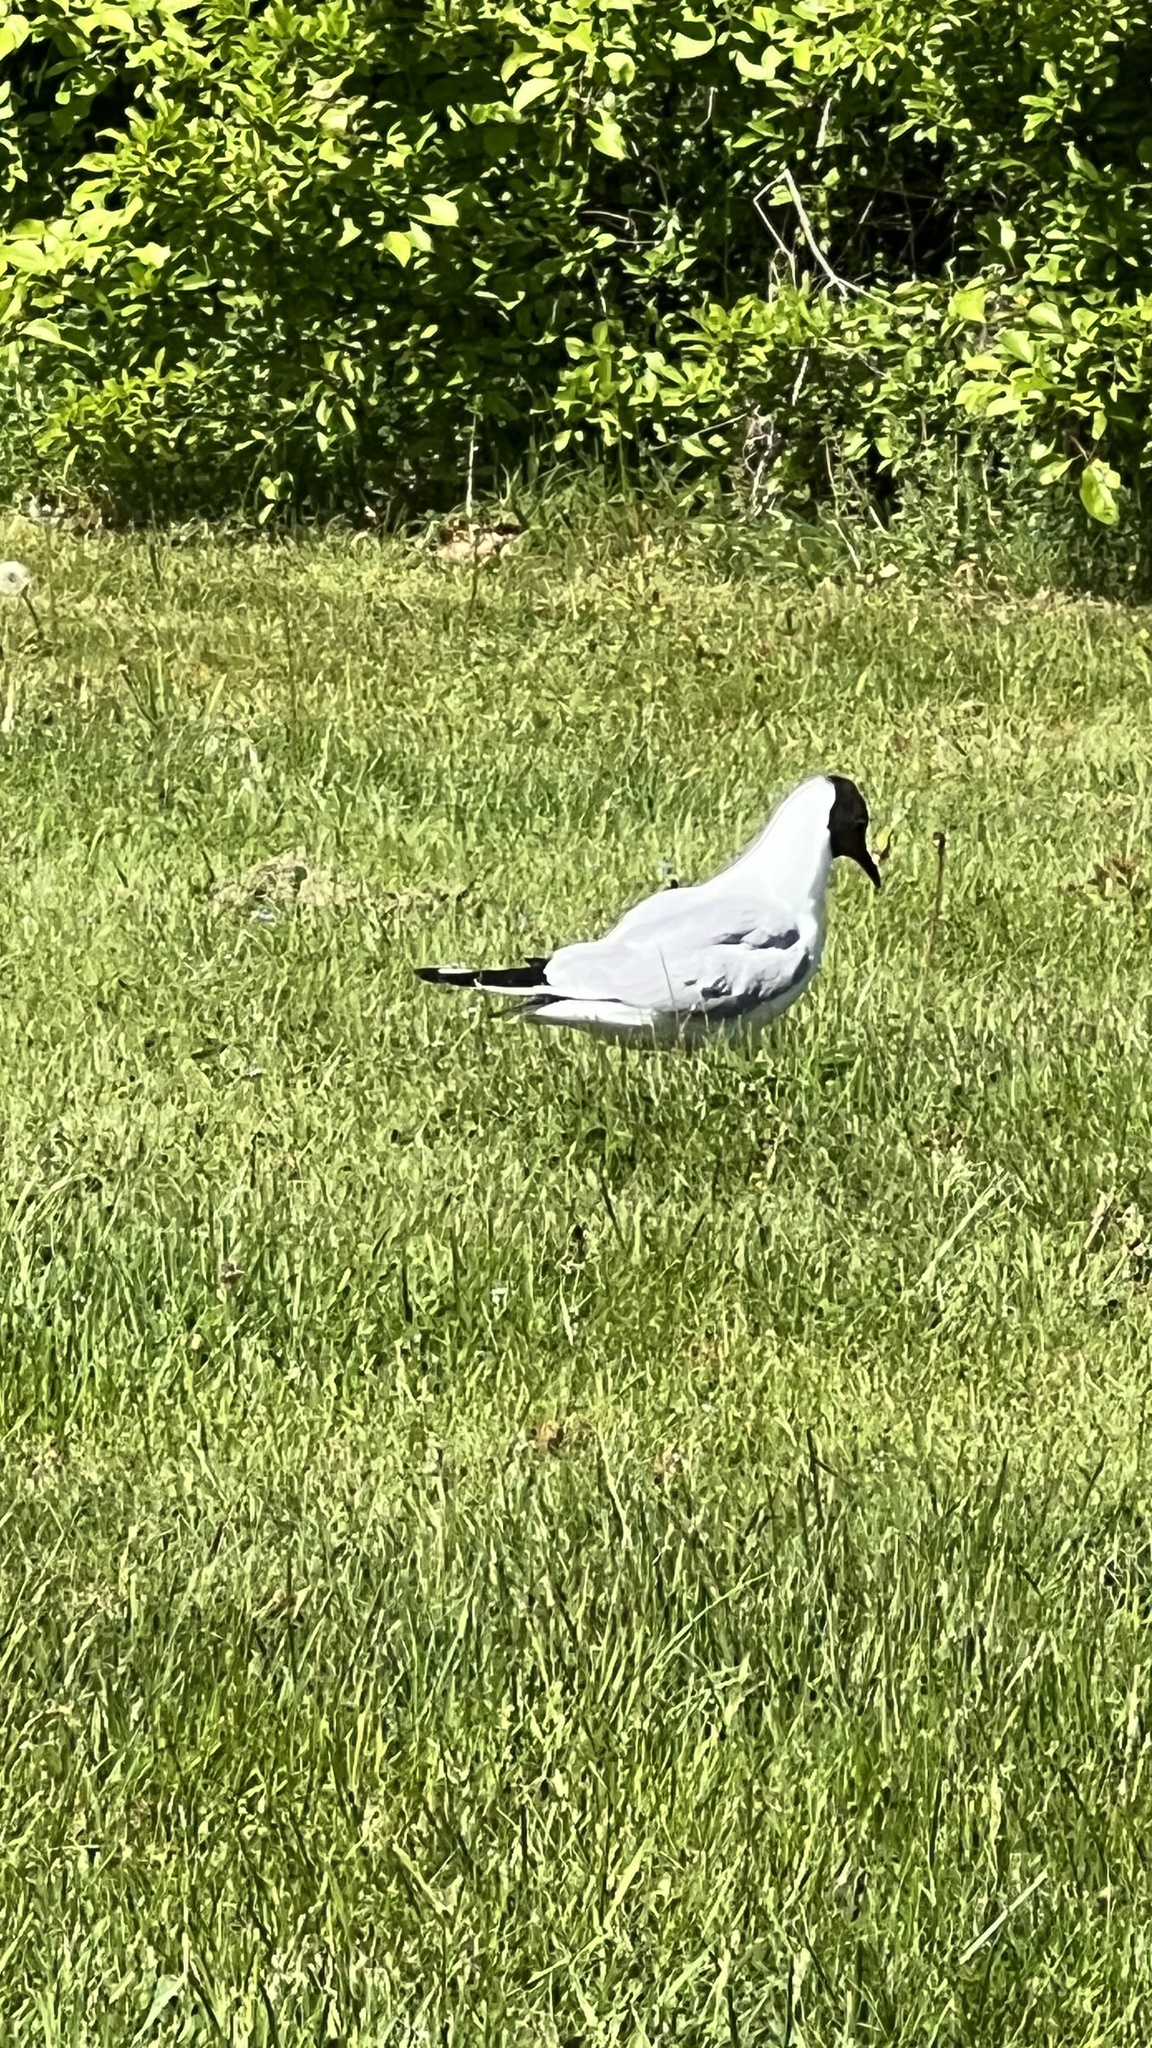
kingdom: Animalia
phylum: Chordata
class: Aves
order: Charadriiformes
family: Laridae
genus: Chroicocephalus
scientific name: Chroicocephalus ridibundus
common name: Black-headed gull
